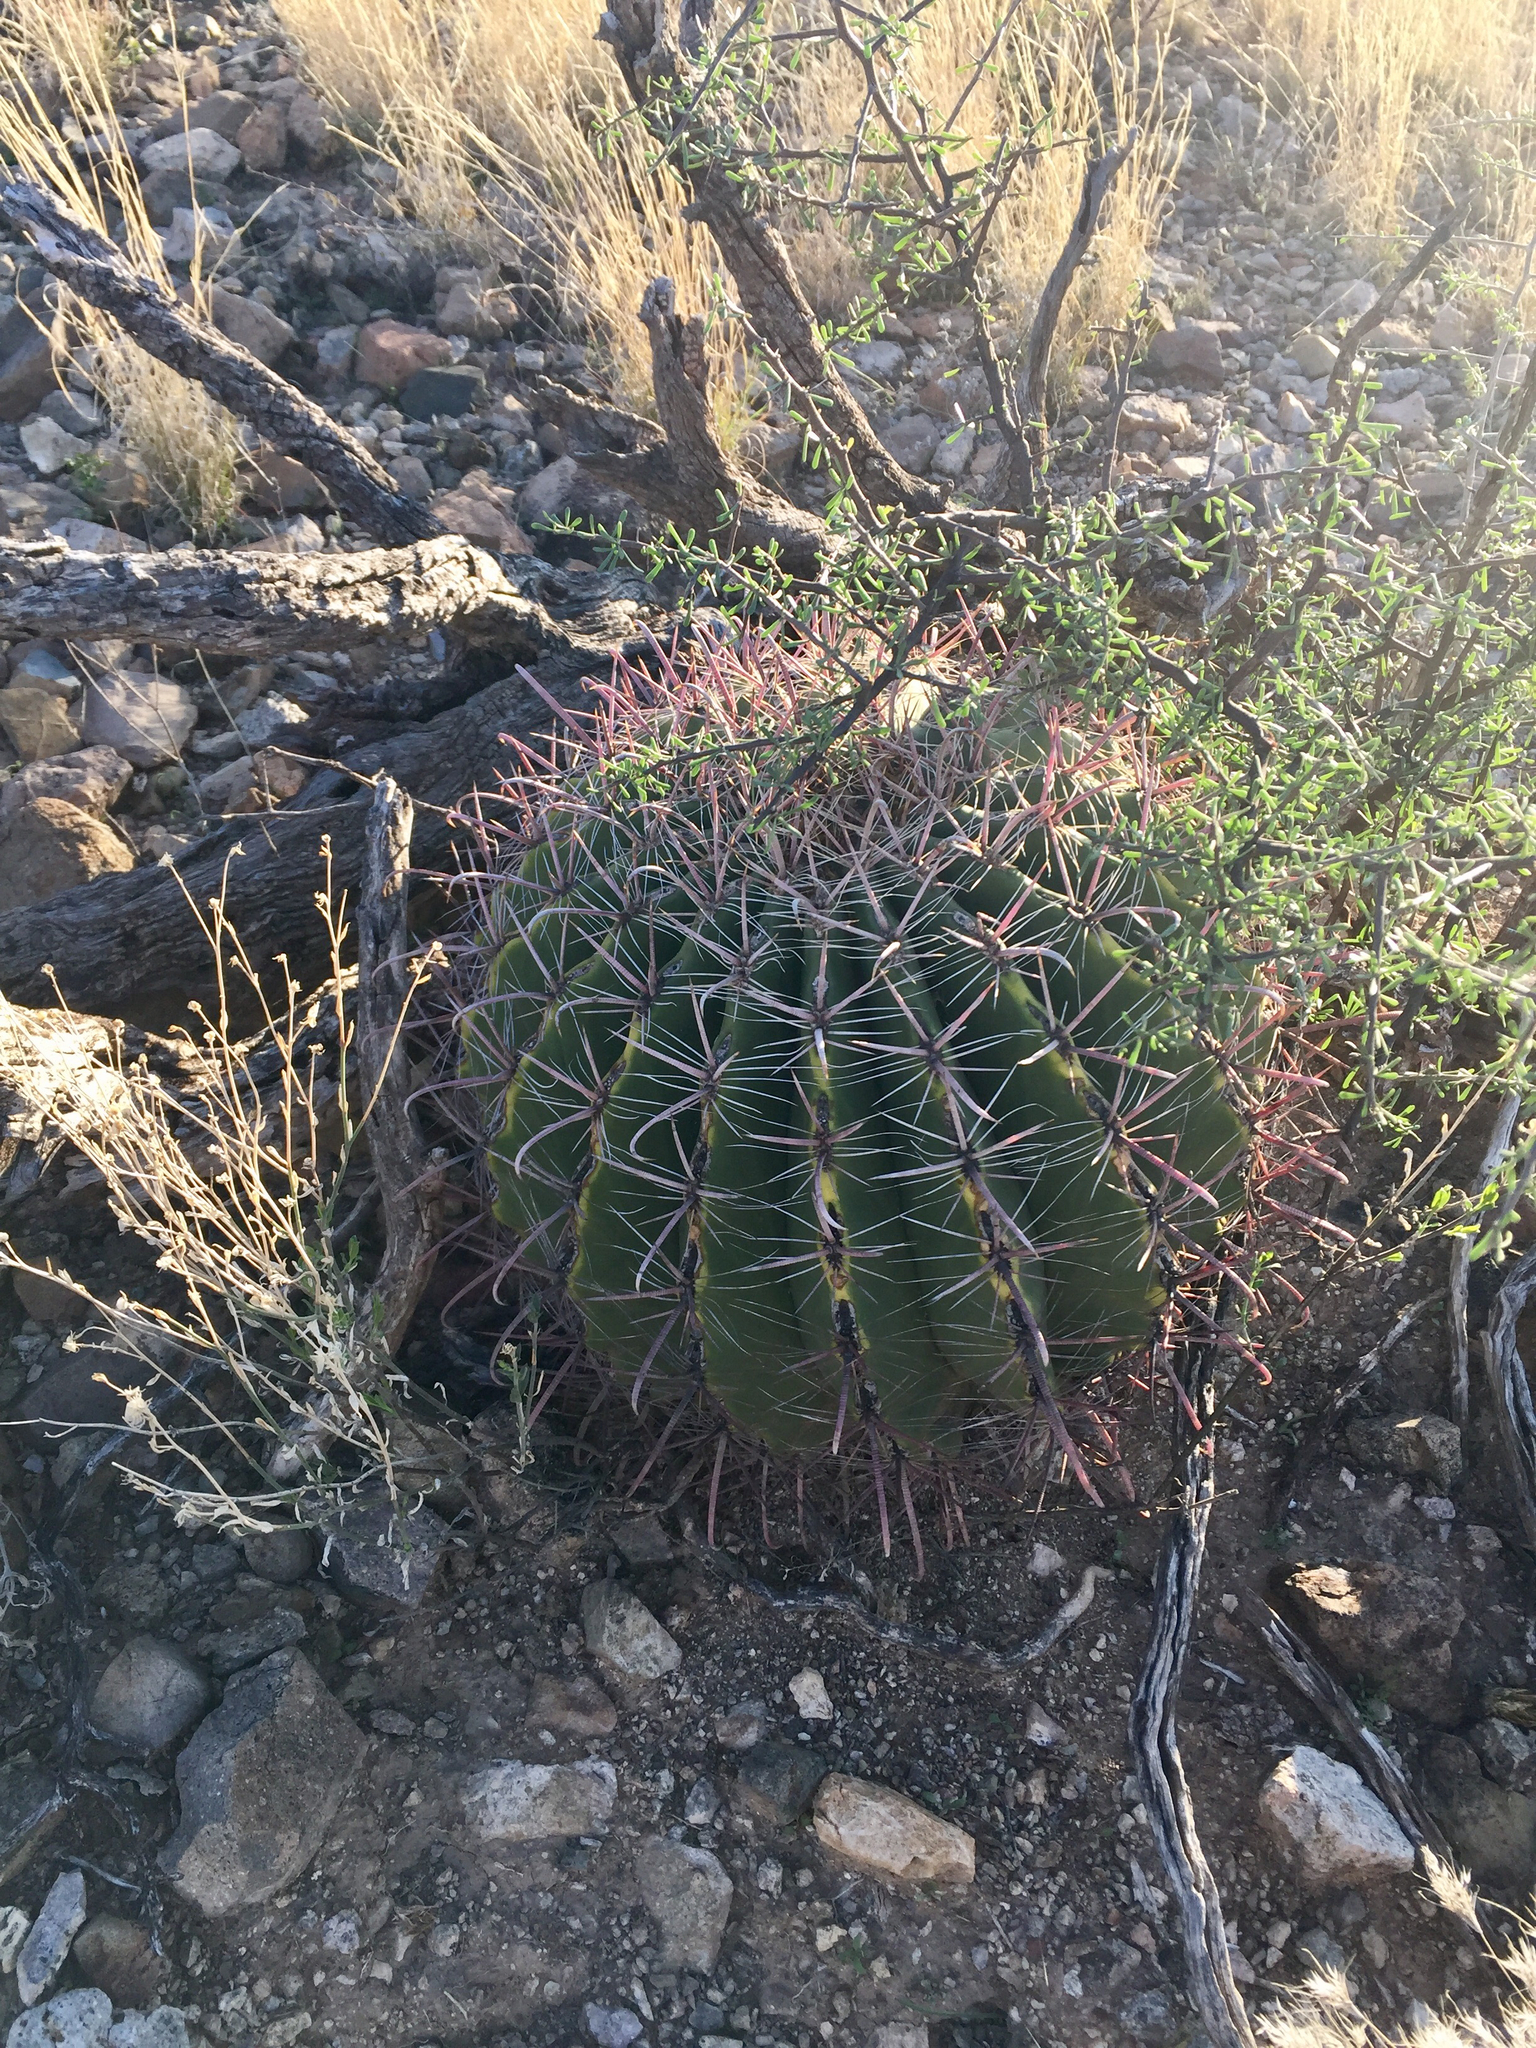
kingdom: Plantae
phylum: Tracheophyta
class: Magnoliopsida
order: Caryophyllales
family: Cactaceae
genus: Ferocactus
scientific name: Ferocactus wislizeni
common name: Candy barrel cactus
